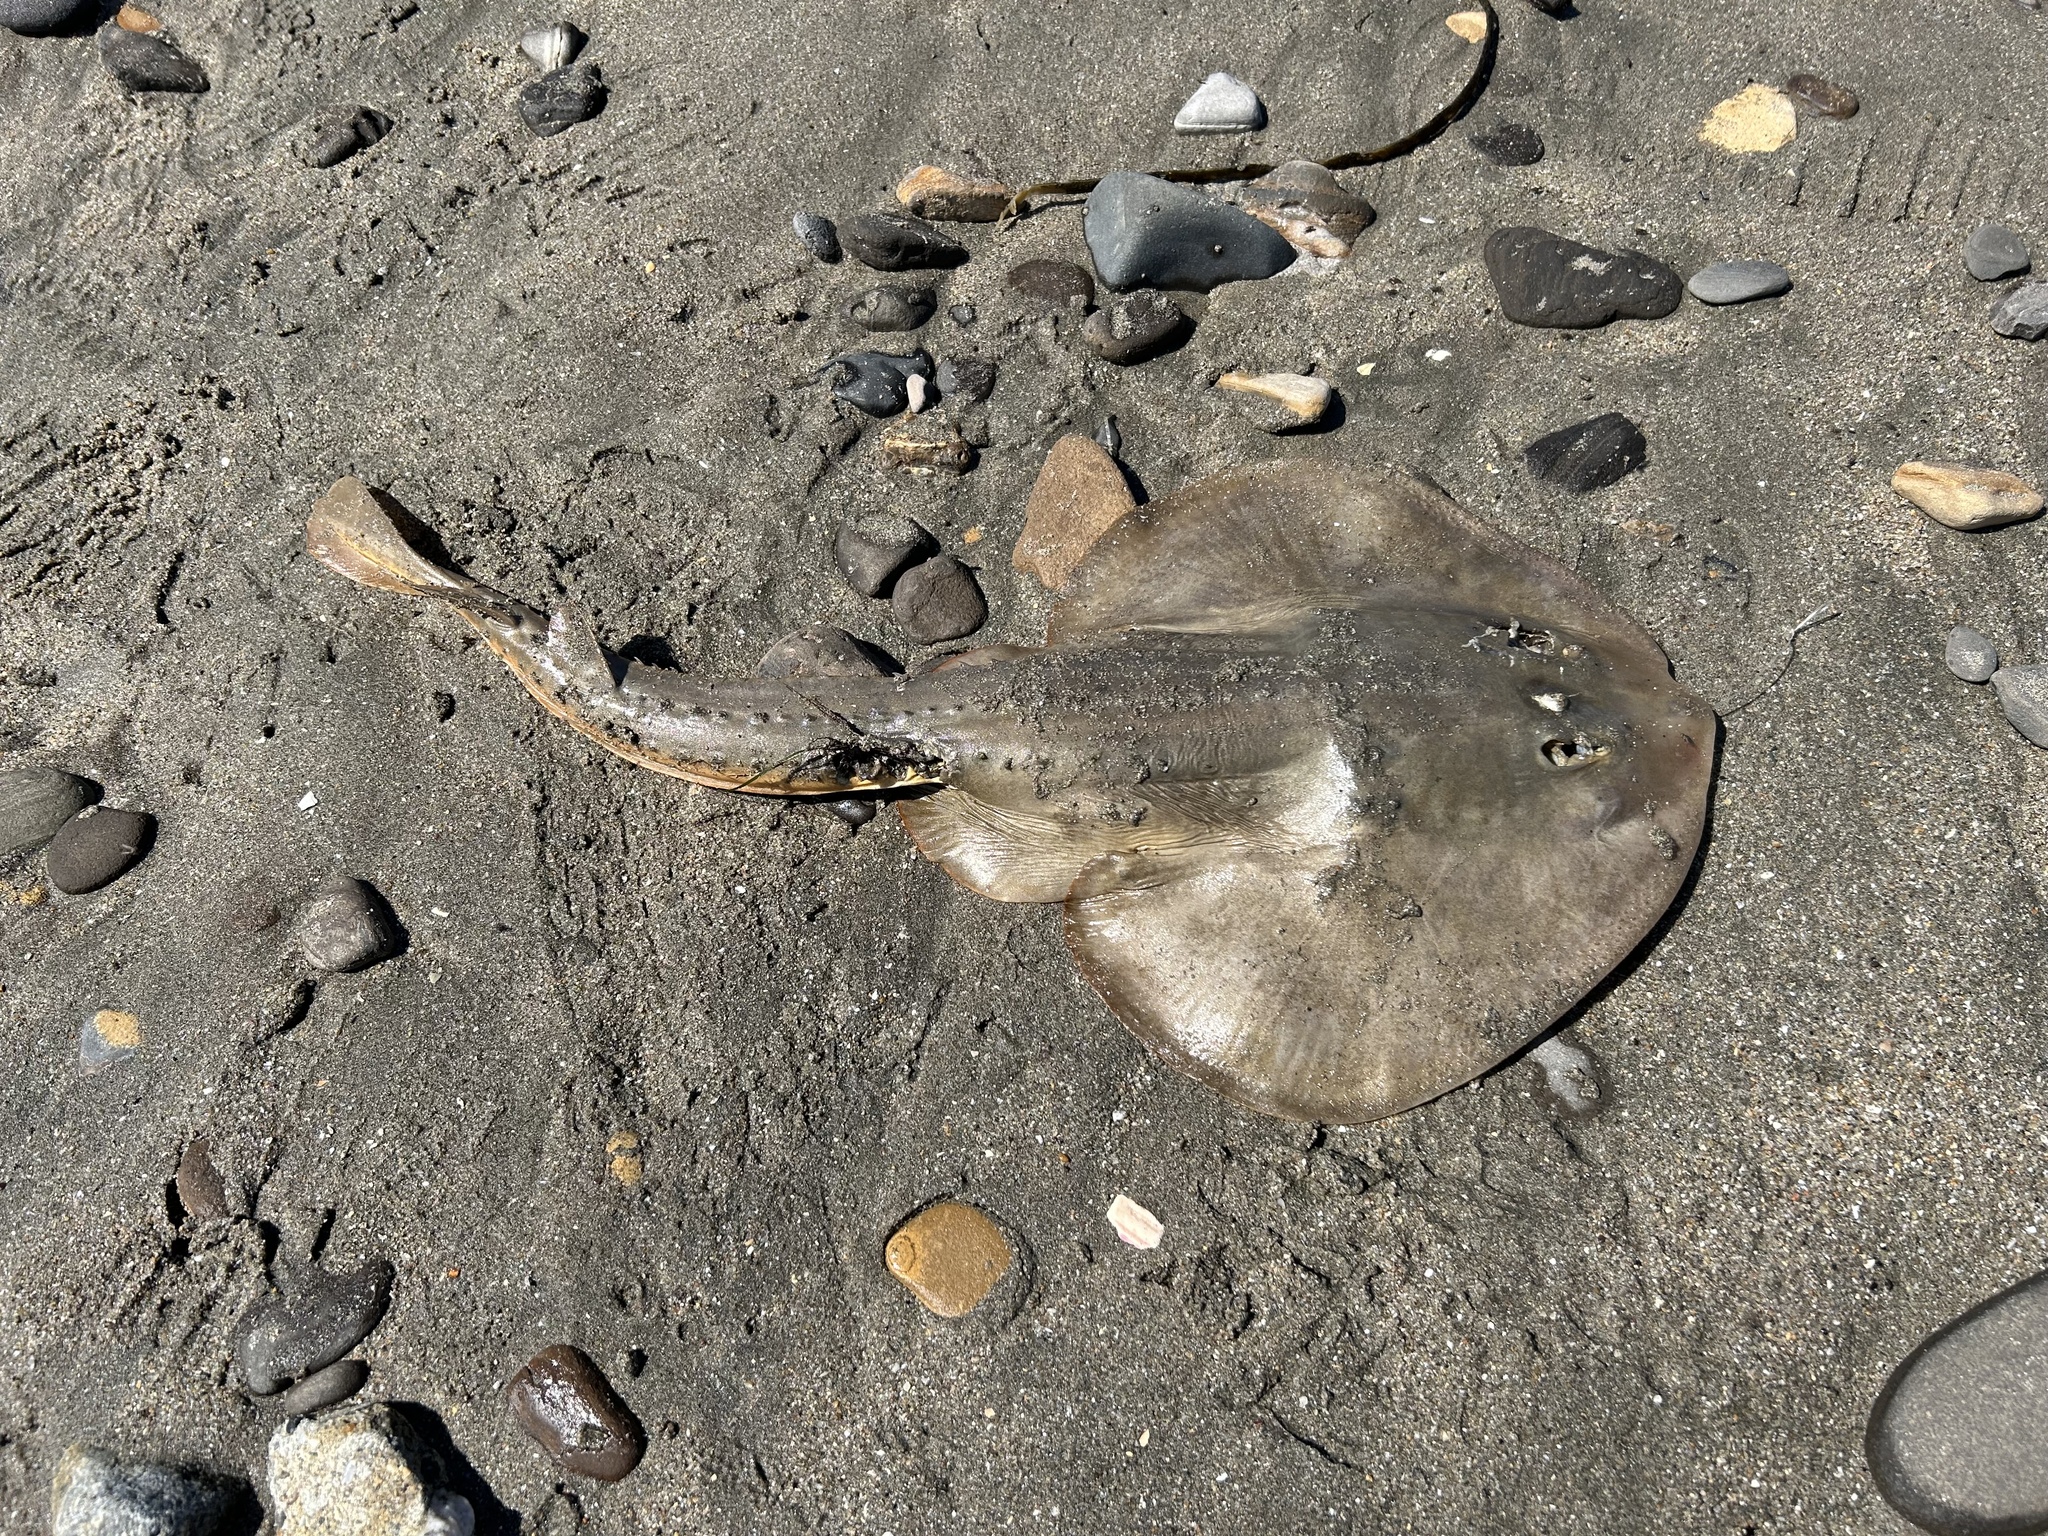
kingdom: Animalia
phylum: Chordata
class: Elasmobranchii
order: Rhinopristiformes
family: Rhinobatidae
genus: Platyrhinoidis
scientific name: Platyrhinoidis triseriata
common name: Thornback
